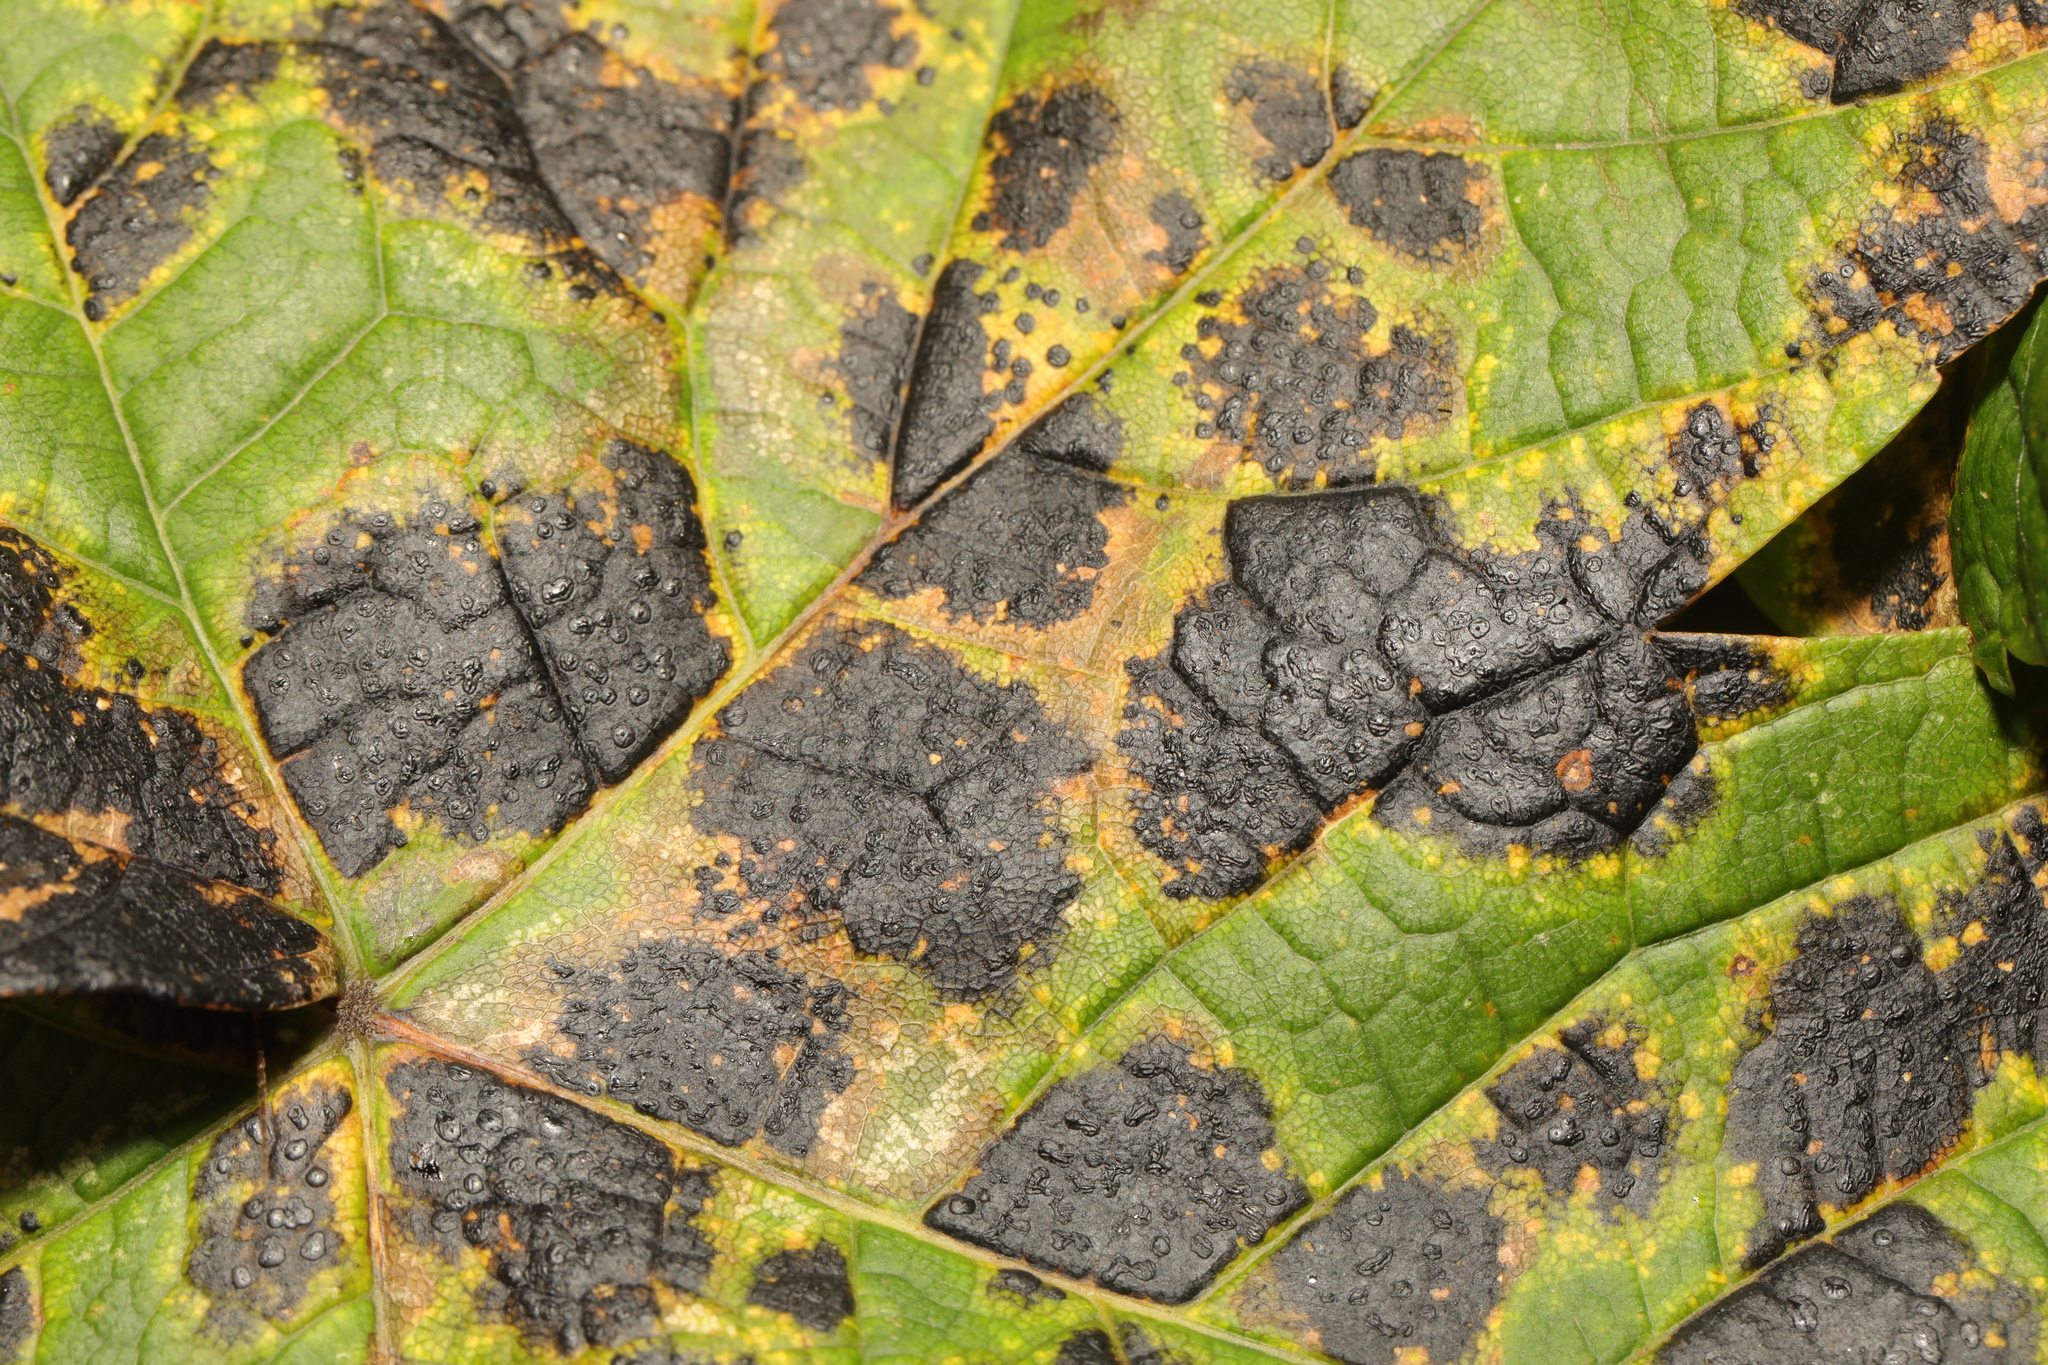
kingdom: Fungi
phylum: Ascomycota
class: Leotiomycetes
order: Rhytismatales
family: Rhytismataceae
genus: Rhytisma
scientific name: Rhytisma acerinum
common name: European tar spot
